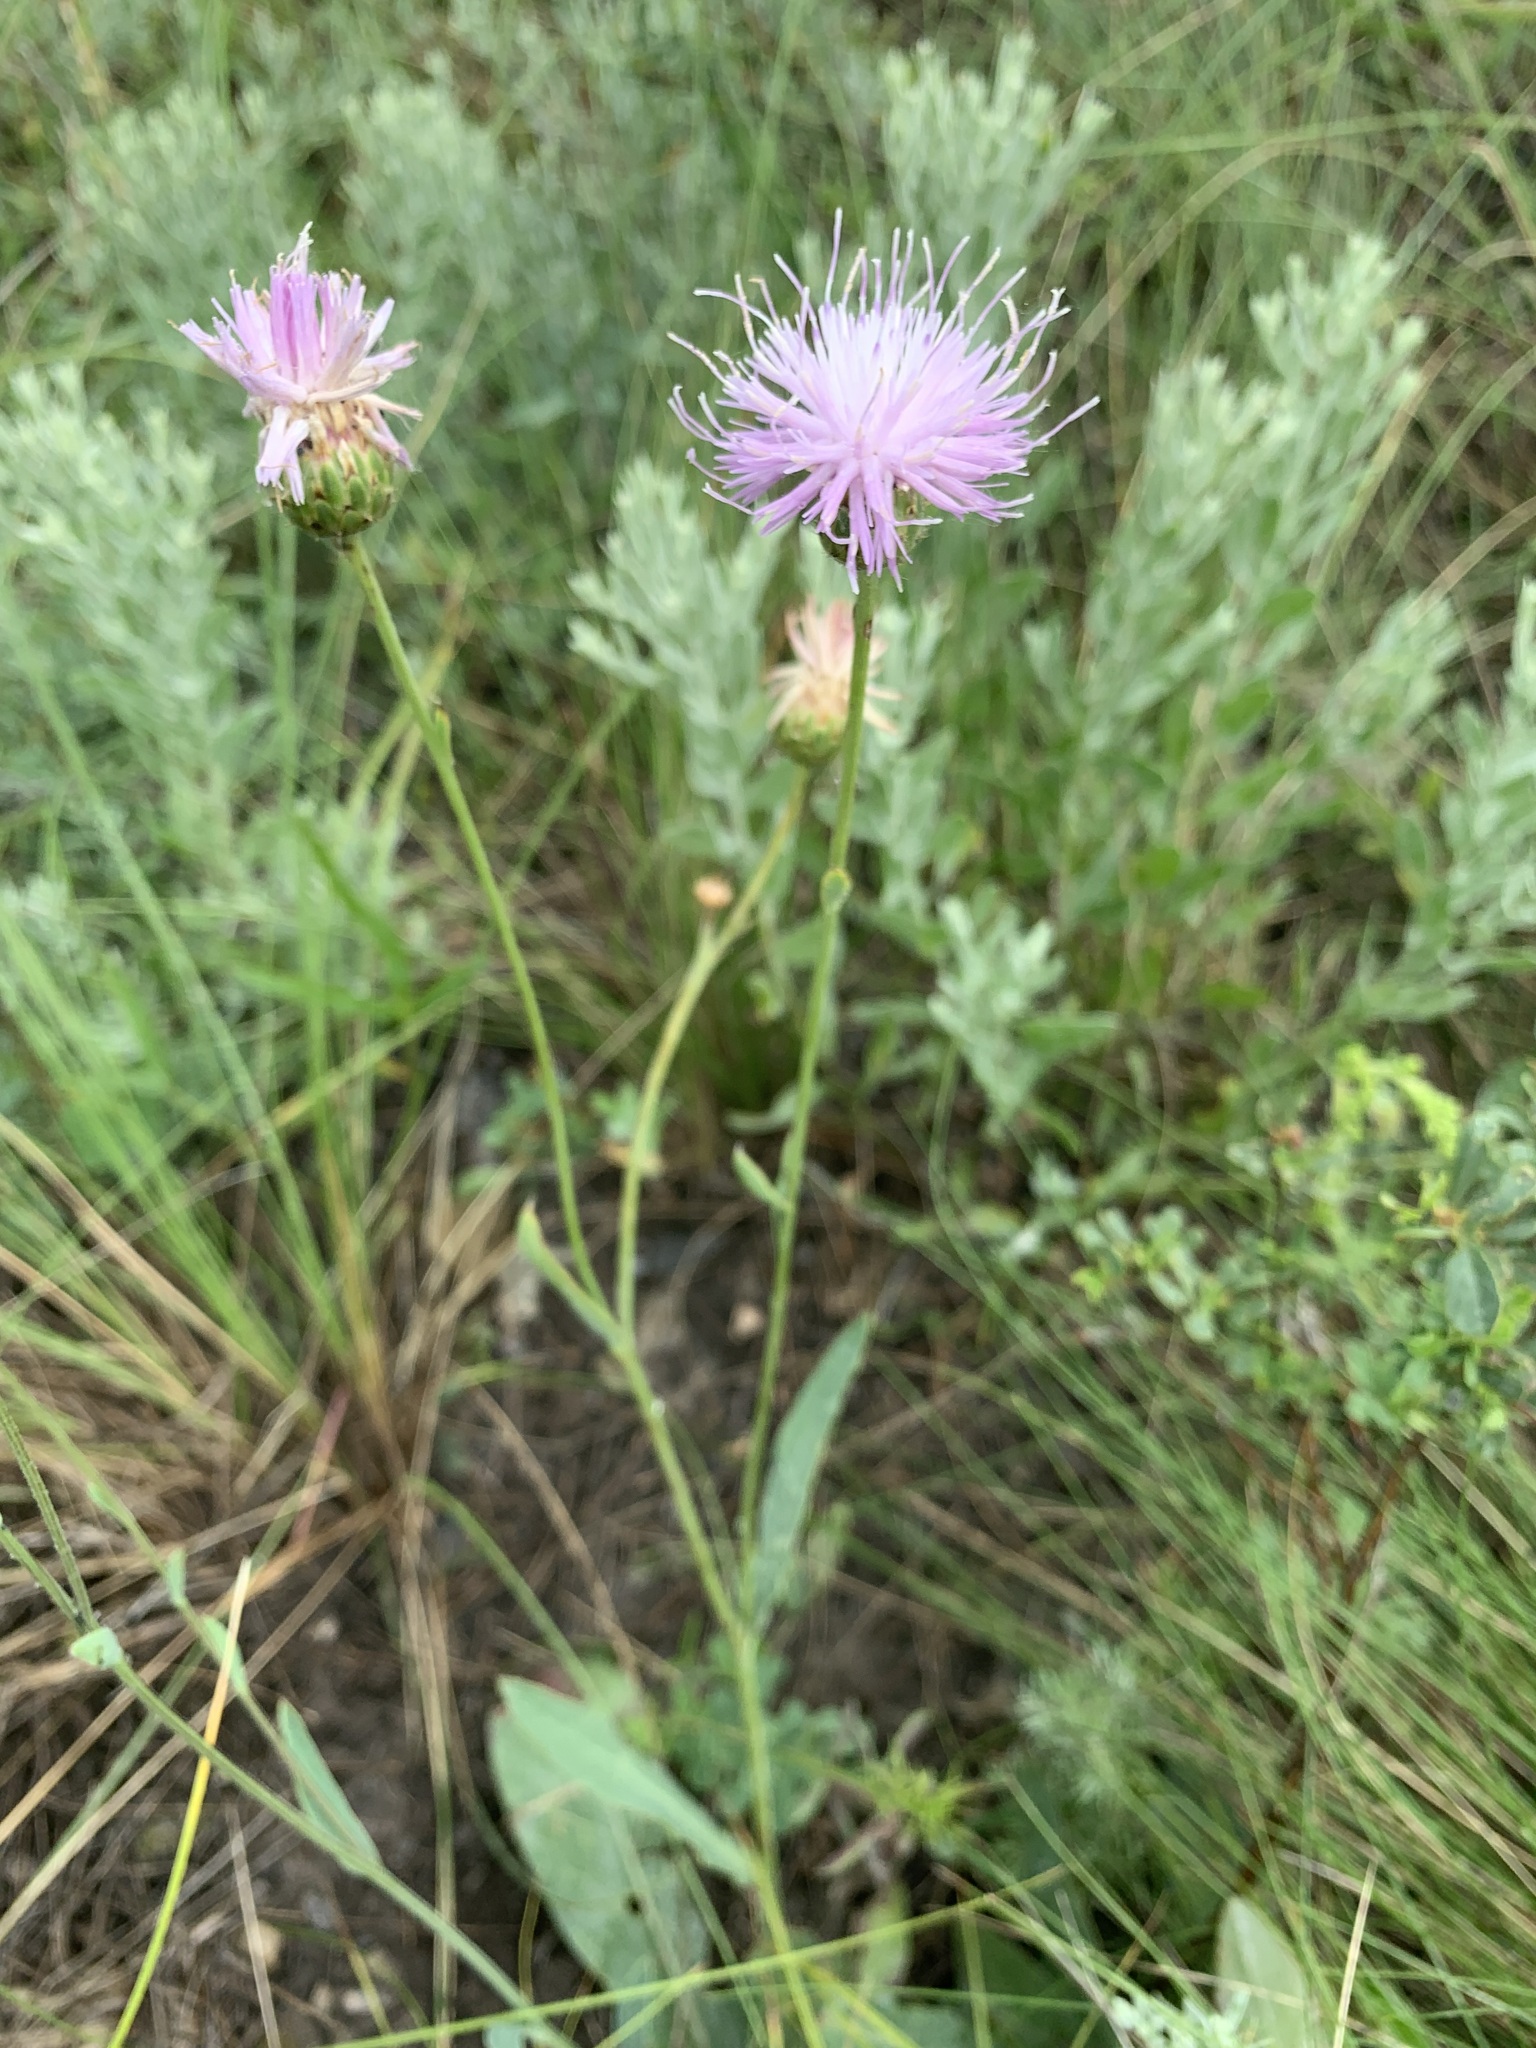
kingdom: Plantae
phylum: Tracheophyta
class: Magnoliopsida
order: Asterales
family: Asteraceae
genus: Klasea
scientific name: Klasea cardunculus
